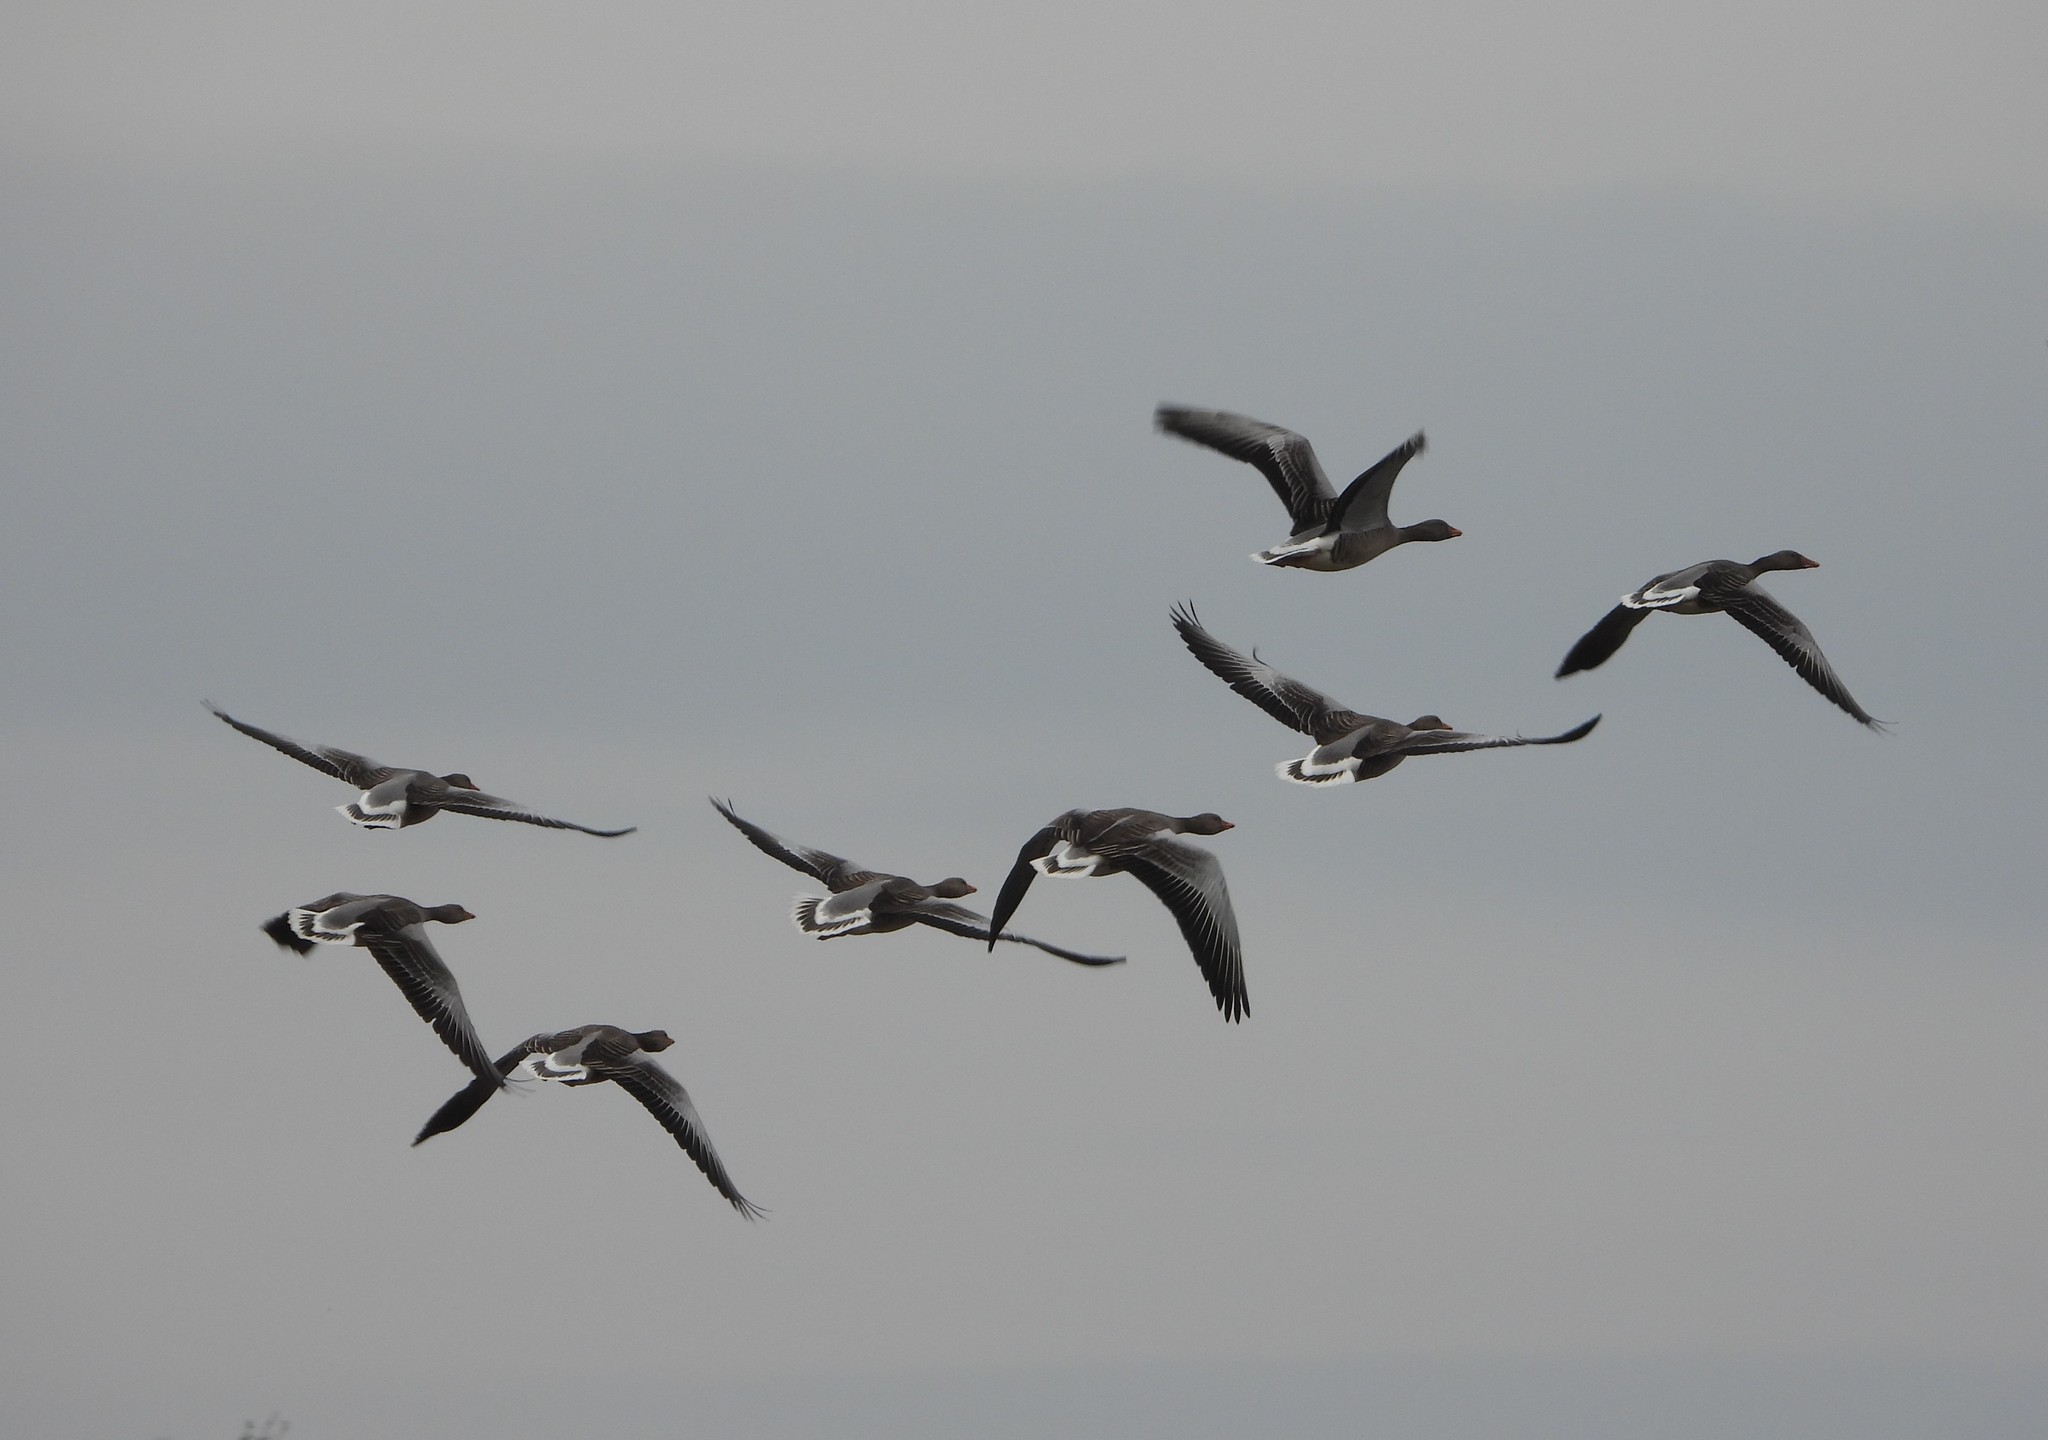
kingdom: Animalia
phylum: Chordata
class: Aves
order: Anseriformes
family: Anatidae
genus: Anser
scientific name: Anser anser
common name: Greylag goose
